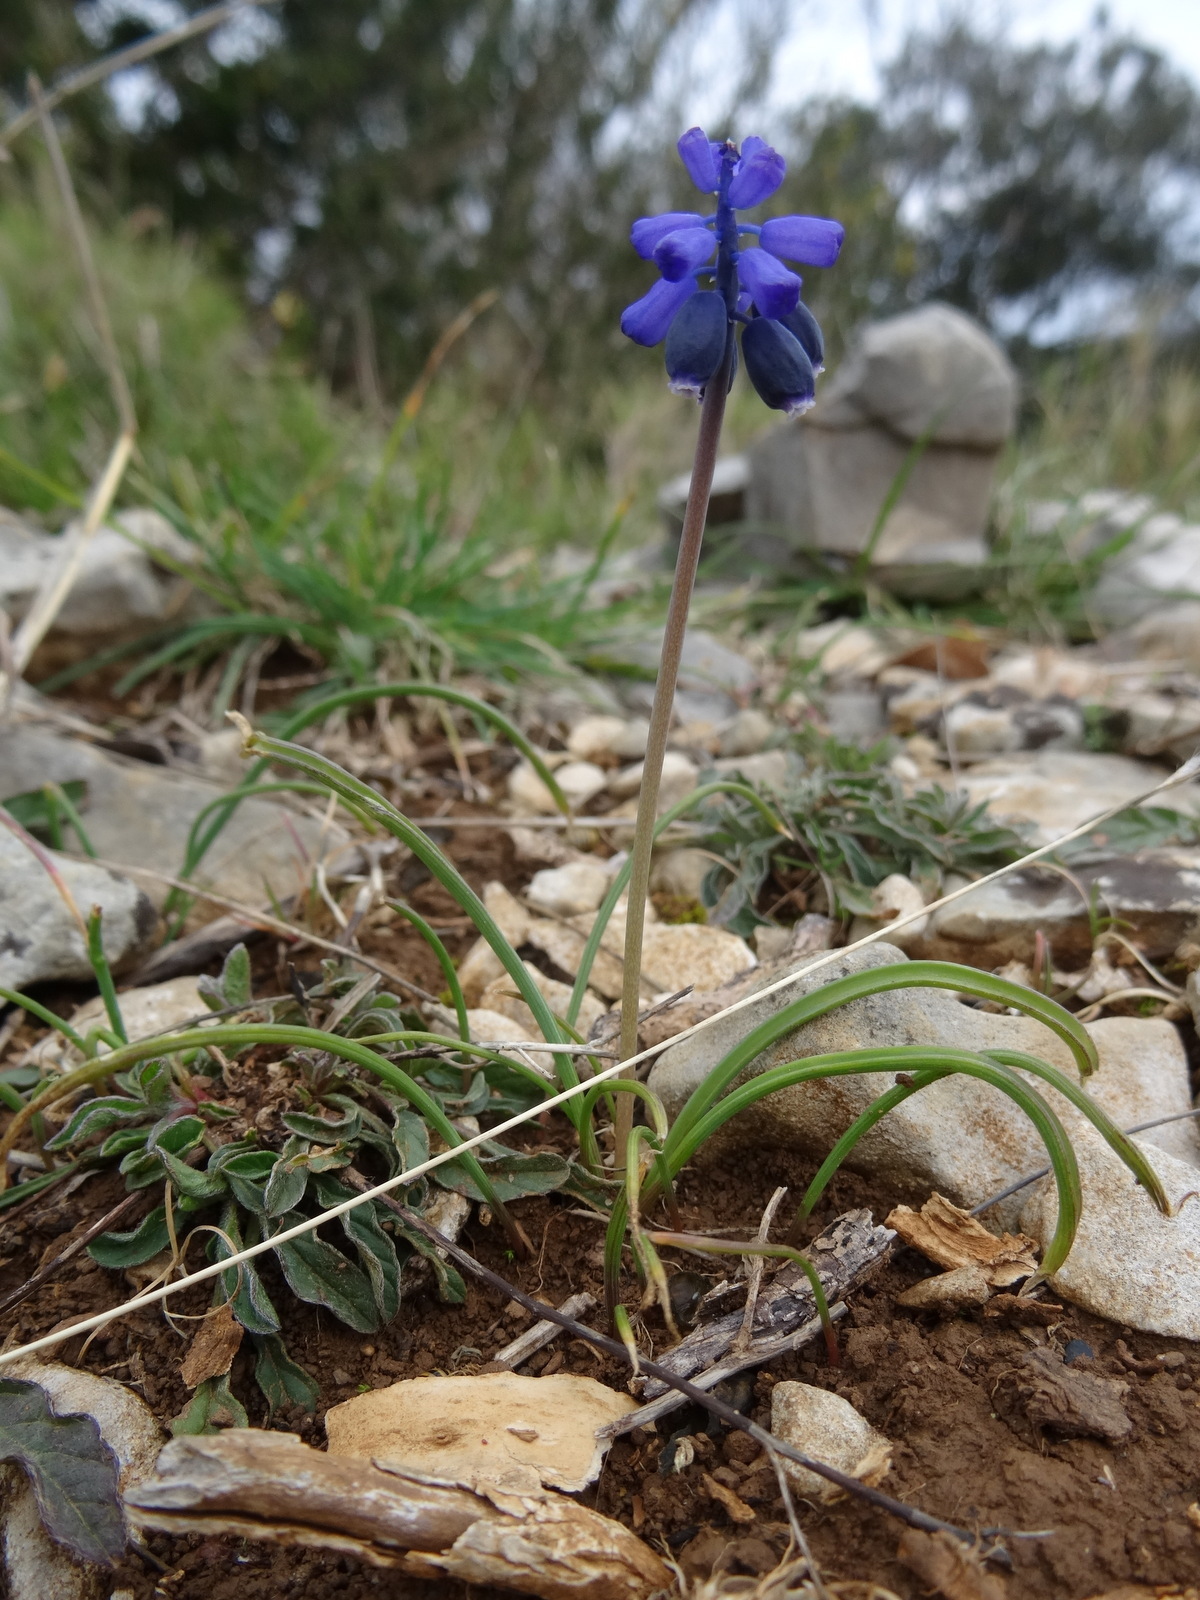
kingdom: Plantae
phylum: Tracheophyta
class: Liliopsida
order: Asparagales
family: Asparagaceae
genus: Muscari
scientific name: Muscari neglectum
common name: Grape-hyacinth
